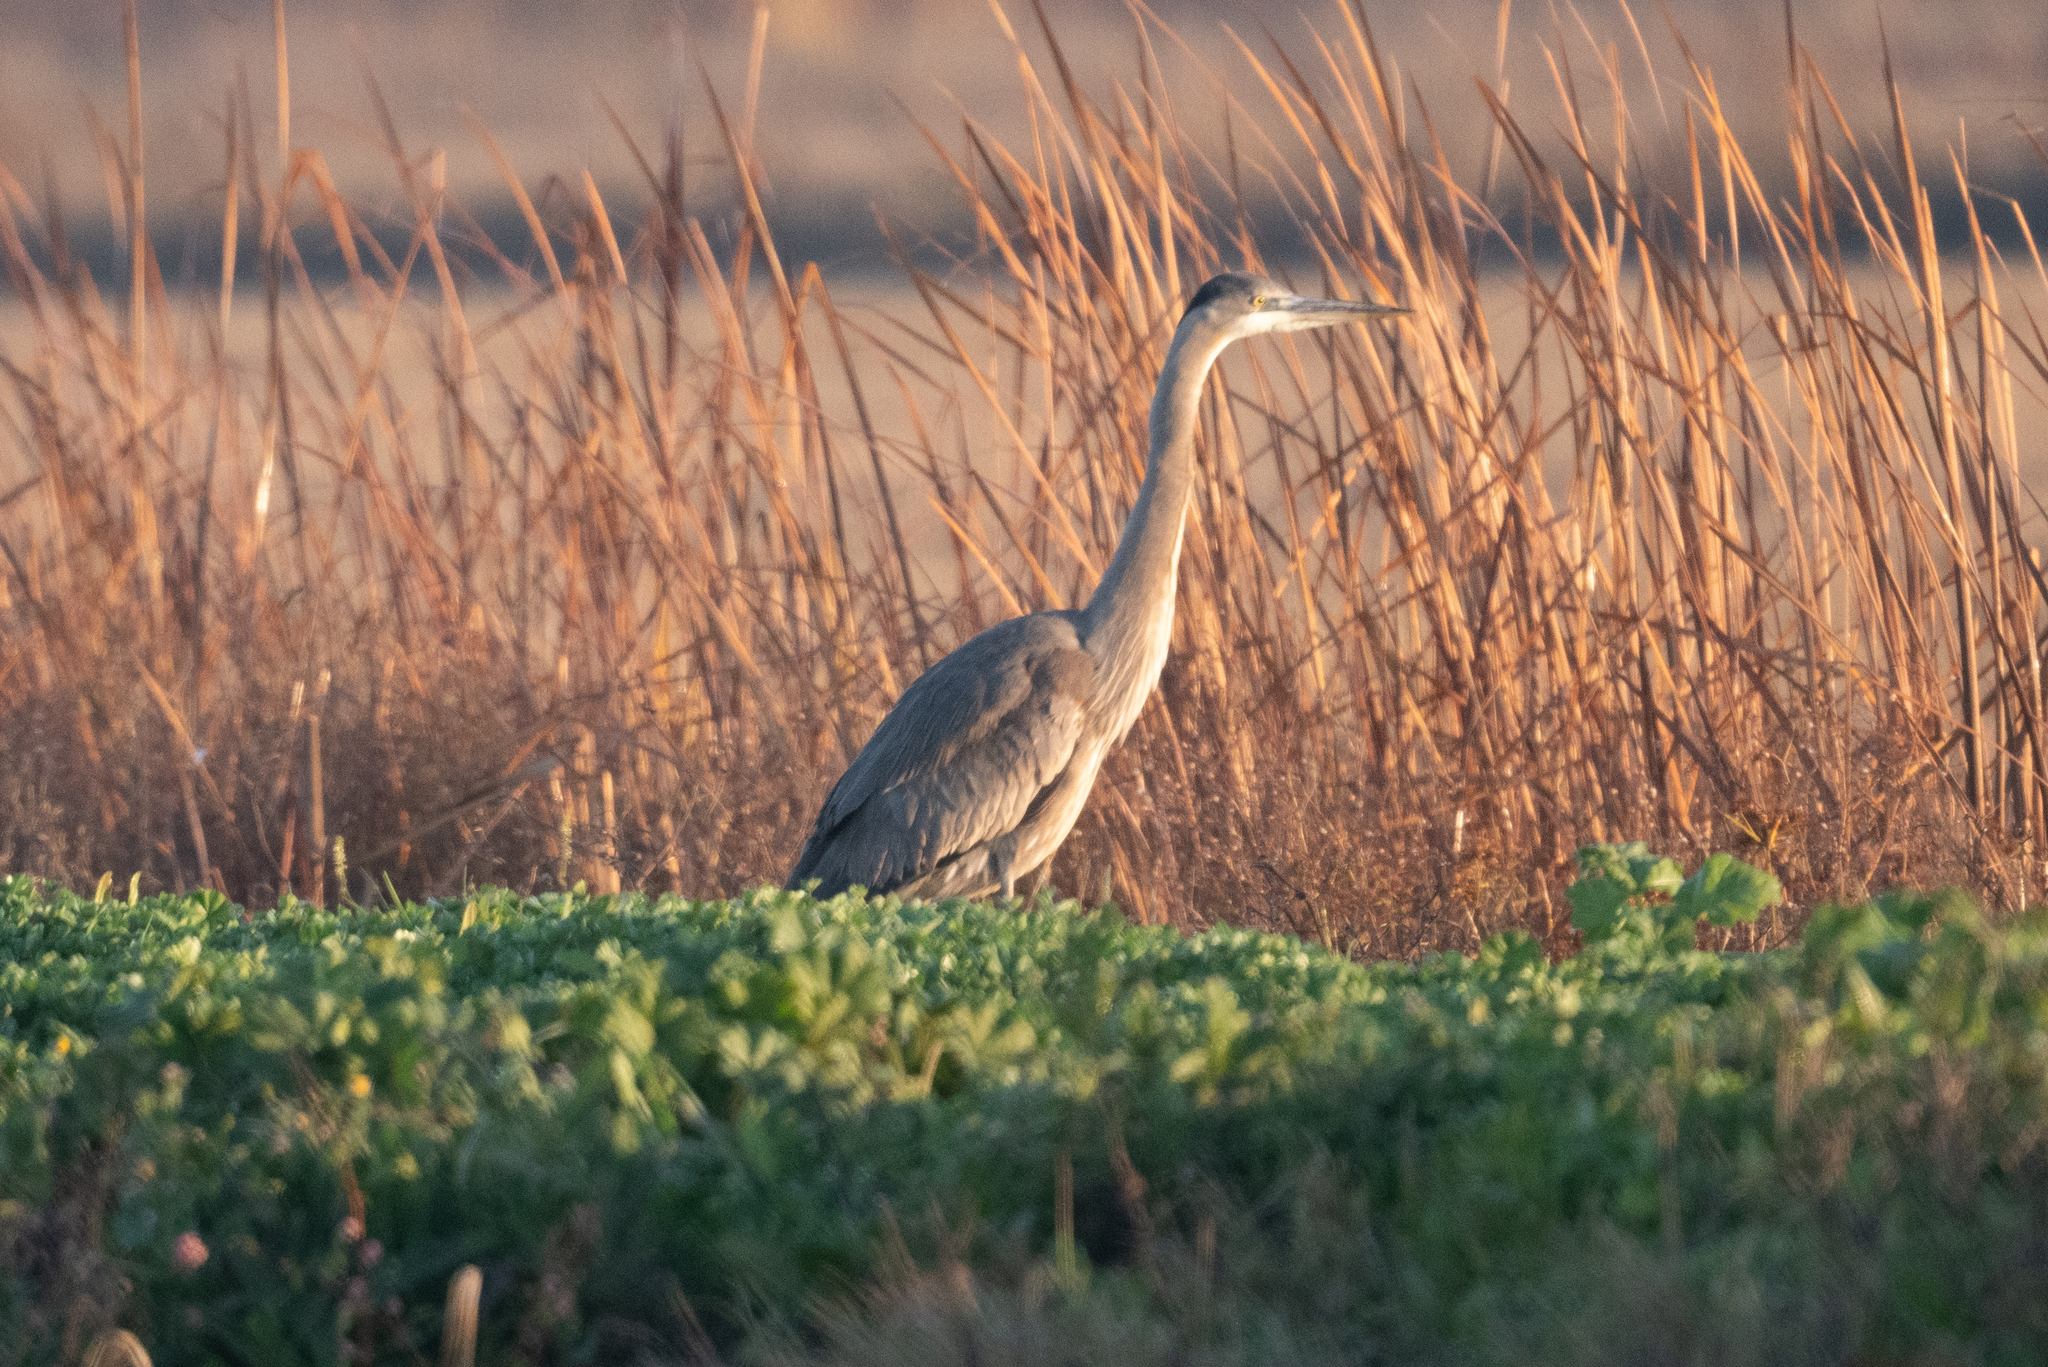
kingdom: Animalia
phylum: Chordata
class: Aves
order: Pelecaniformes
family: Ardeidae
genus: Ardea
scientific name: Ardea herodias
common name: Great blue heron
